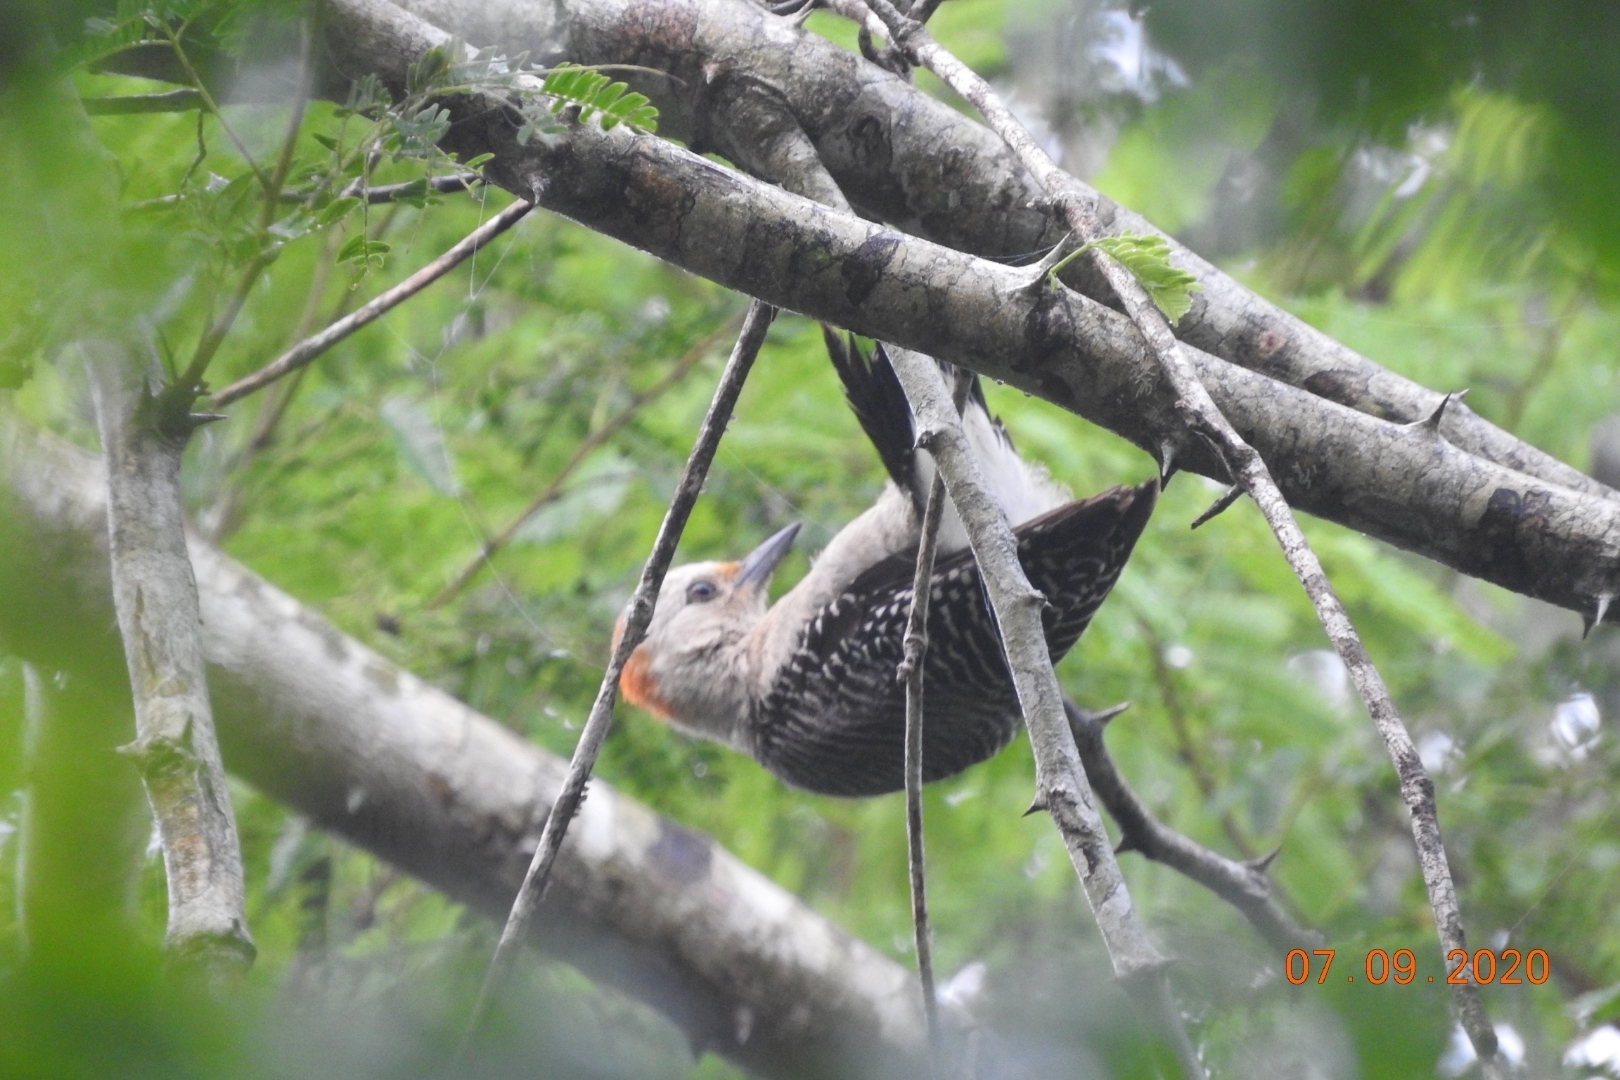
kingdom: Animalia
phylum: Chordata
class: Aves
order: Piciformes
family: Picidae
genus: Melanerpes
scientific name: Melanerpes pygmaeus
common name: Yucatan woodpecker
